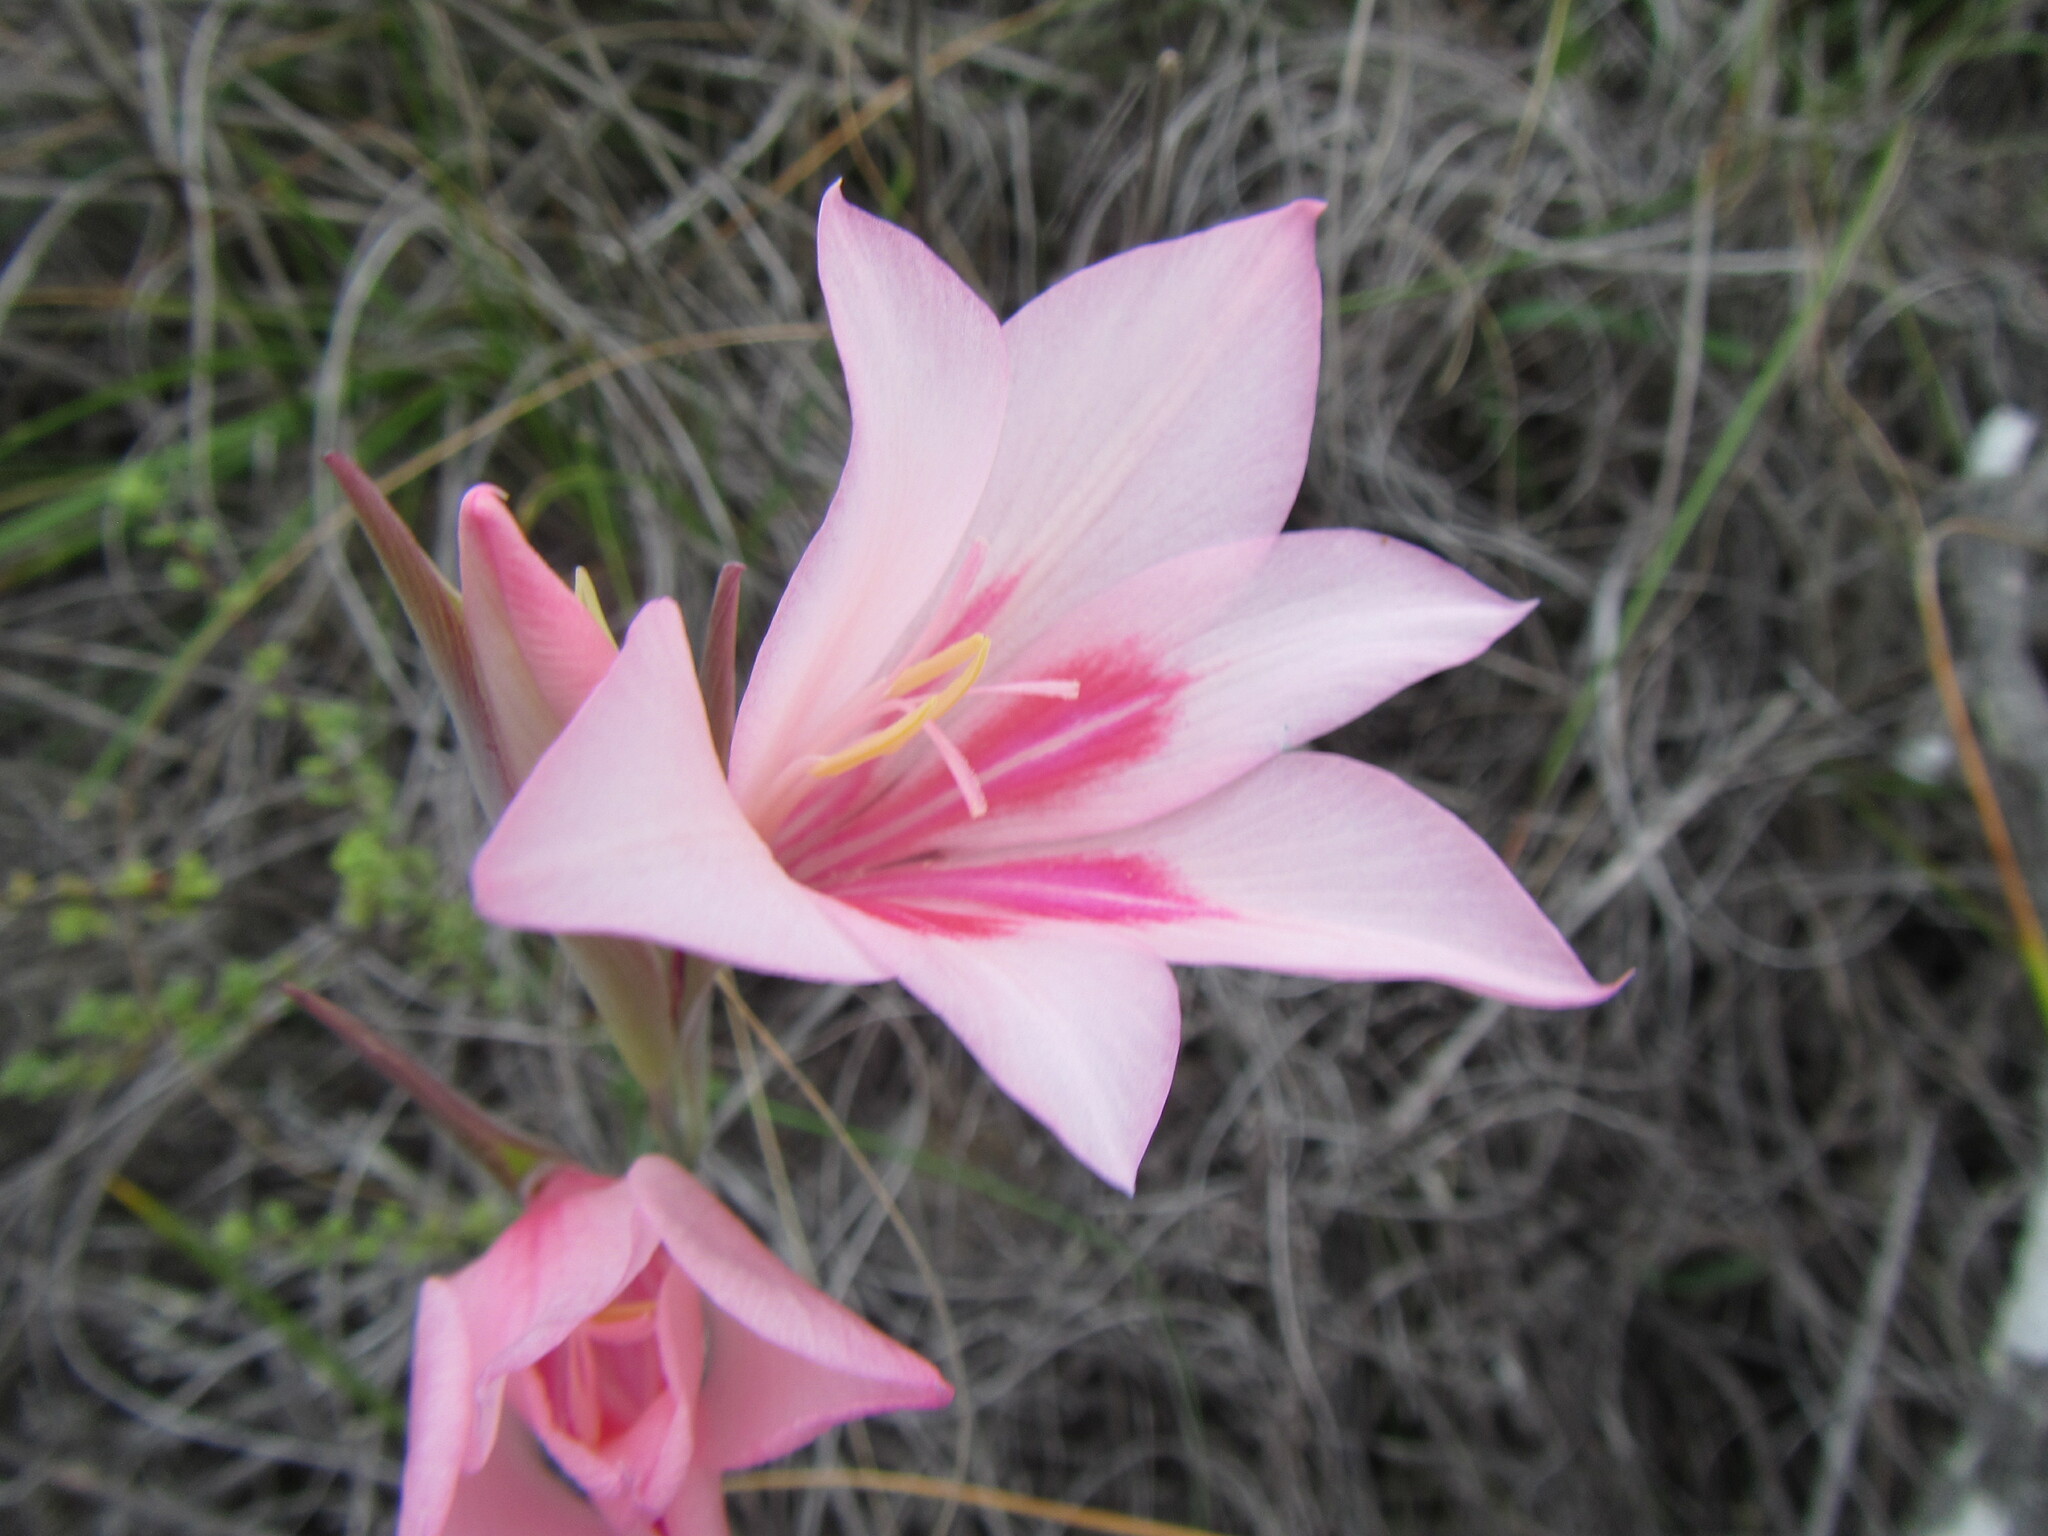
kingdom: Plantae
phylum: Tracheophyta
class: Liliopsida
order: Asparagales
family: Iridaceae
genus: Gladiolus
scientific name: Gladiolus carmineus
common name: Hermanus gladiolus
